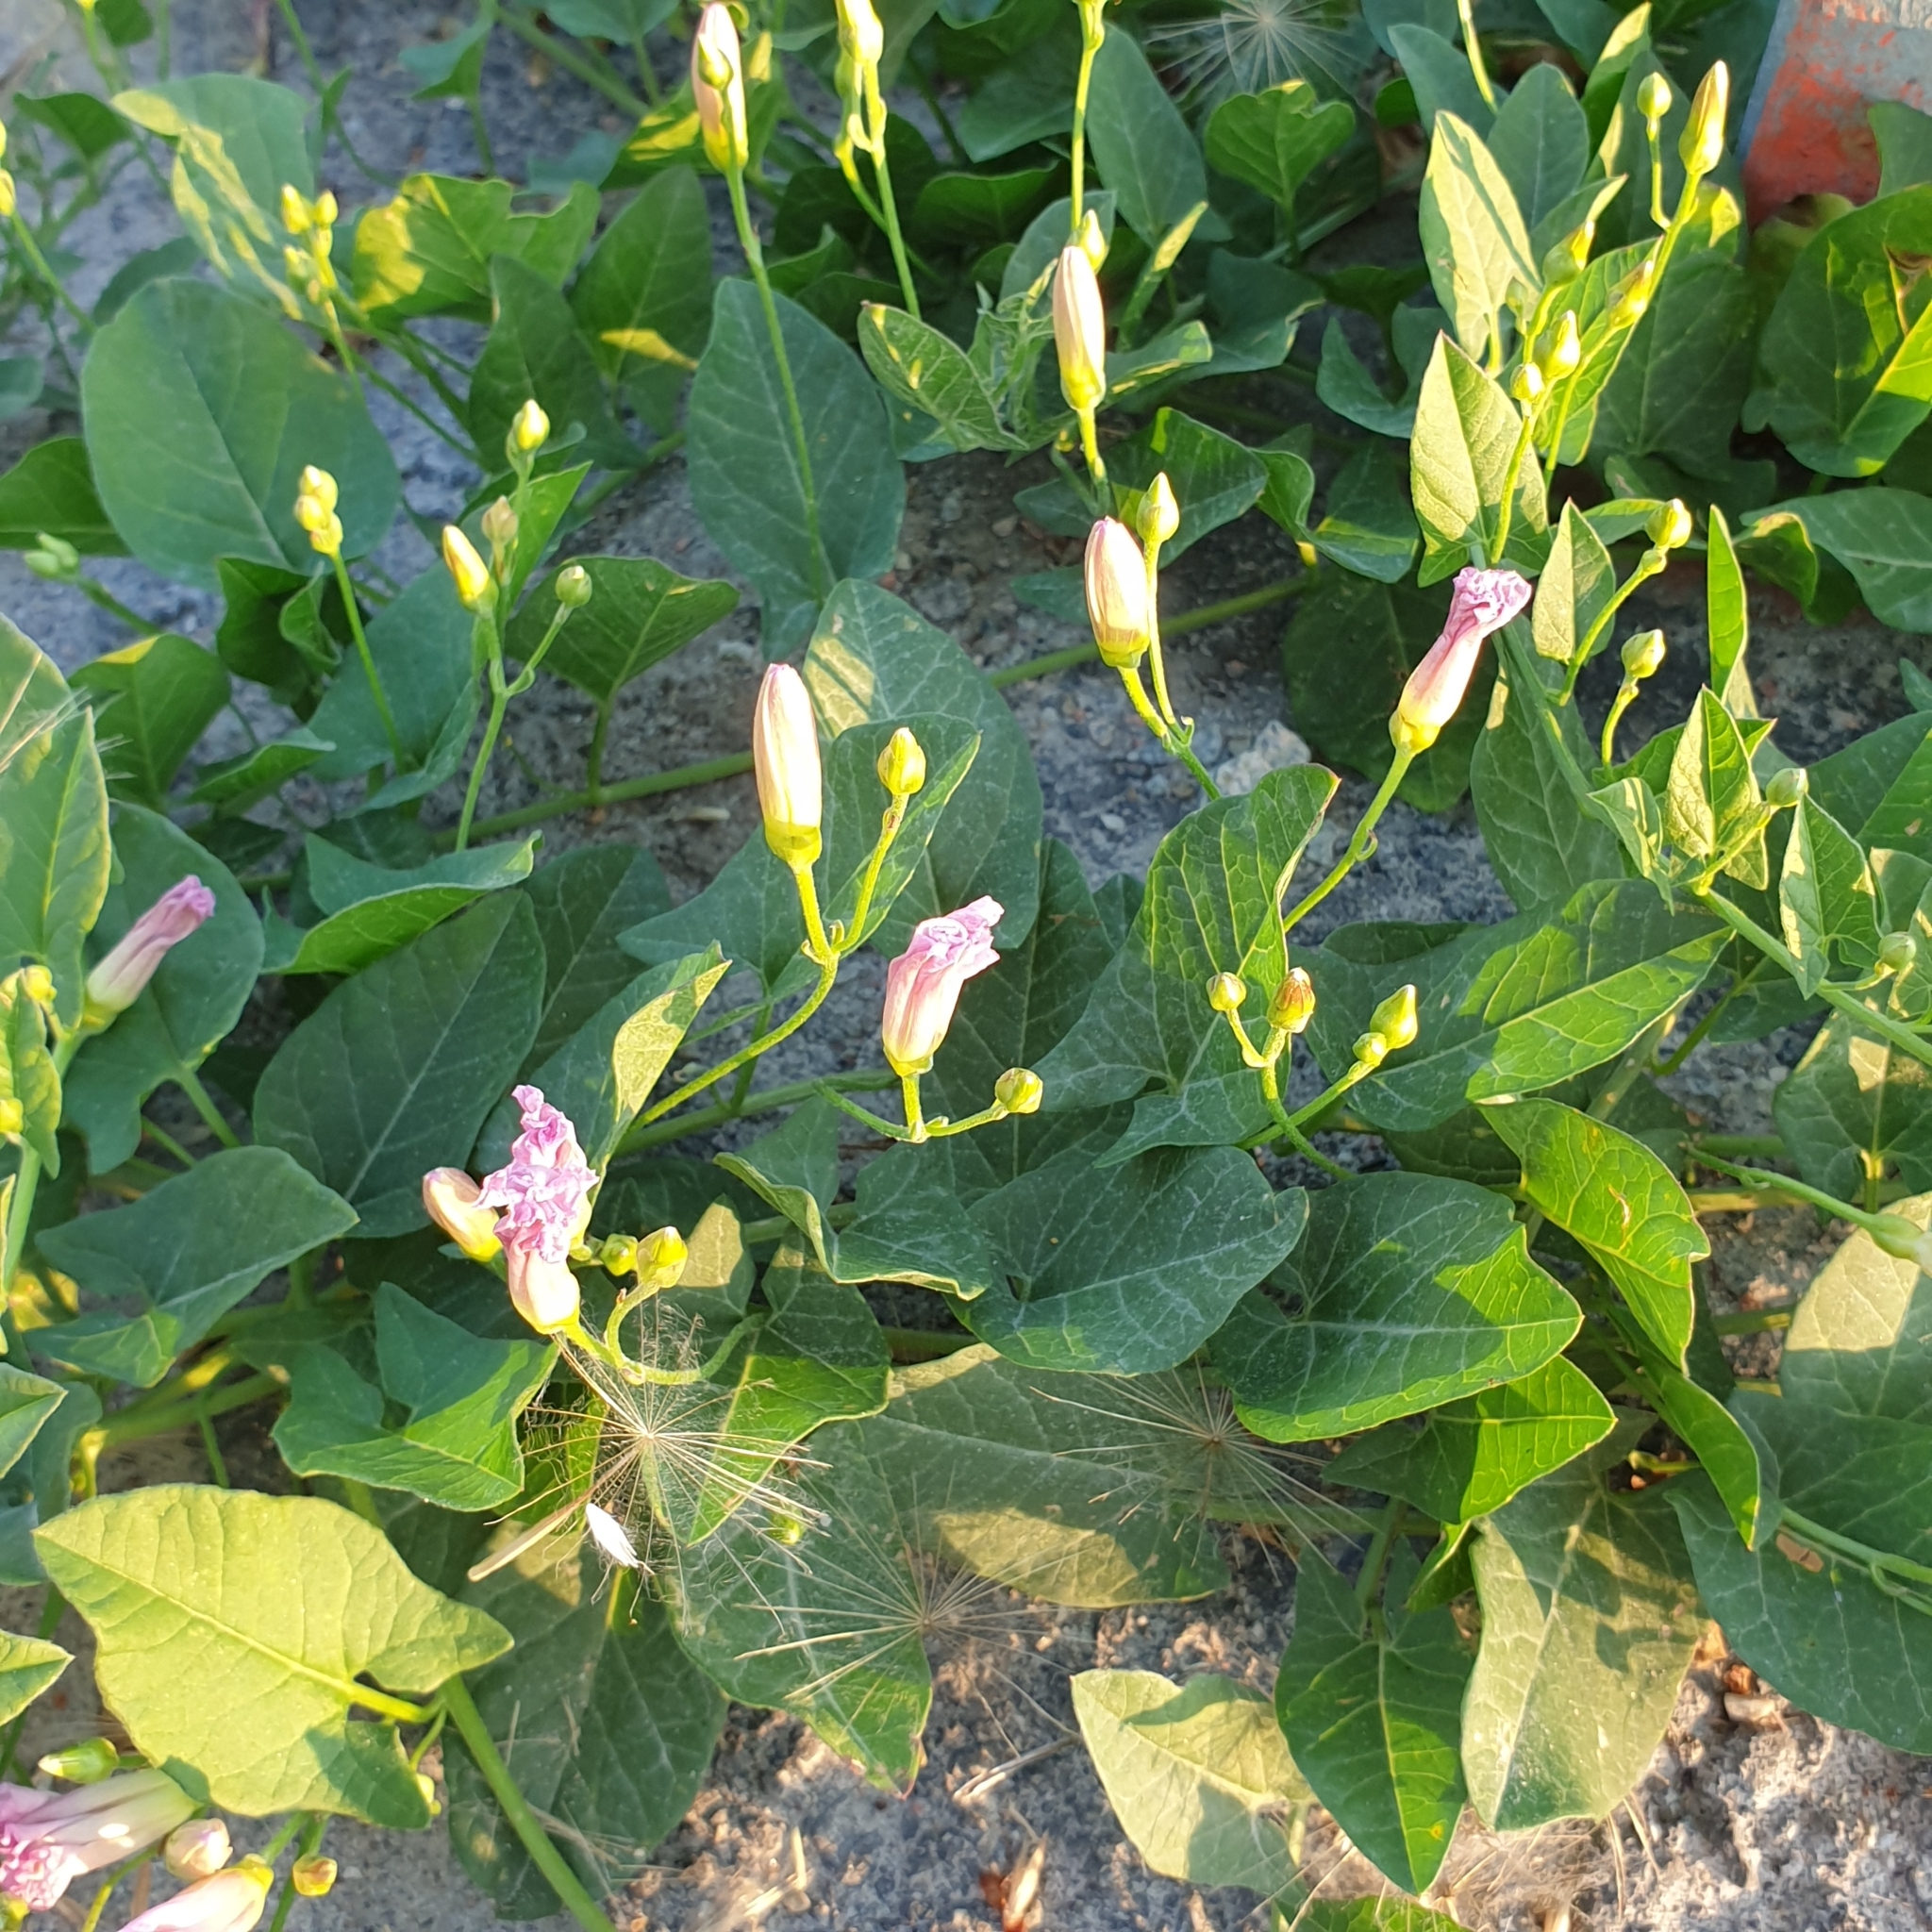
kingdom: Plantae
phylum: Tracheophyta
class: Magnoliopsida
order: Solanales
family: Convolvulaceae
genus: Convolvulus
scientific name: Convolvulus arvensis
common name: Field bindweed
